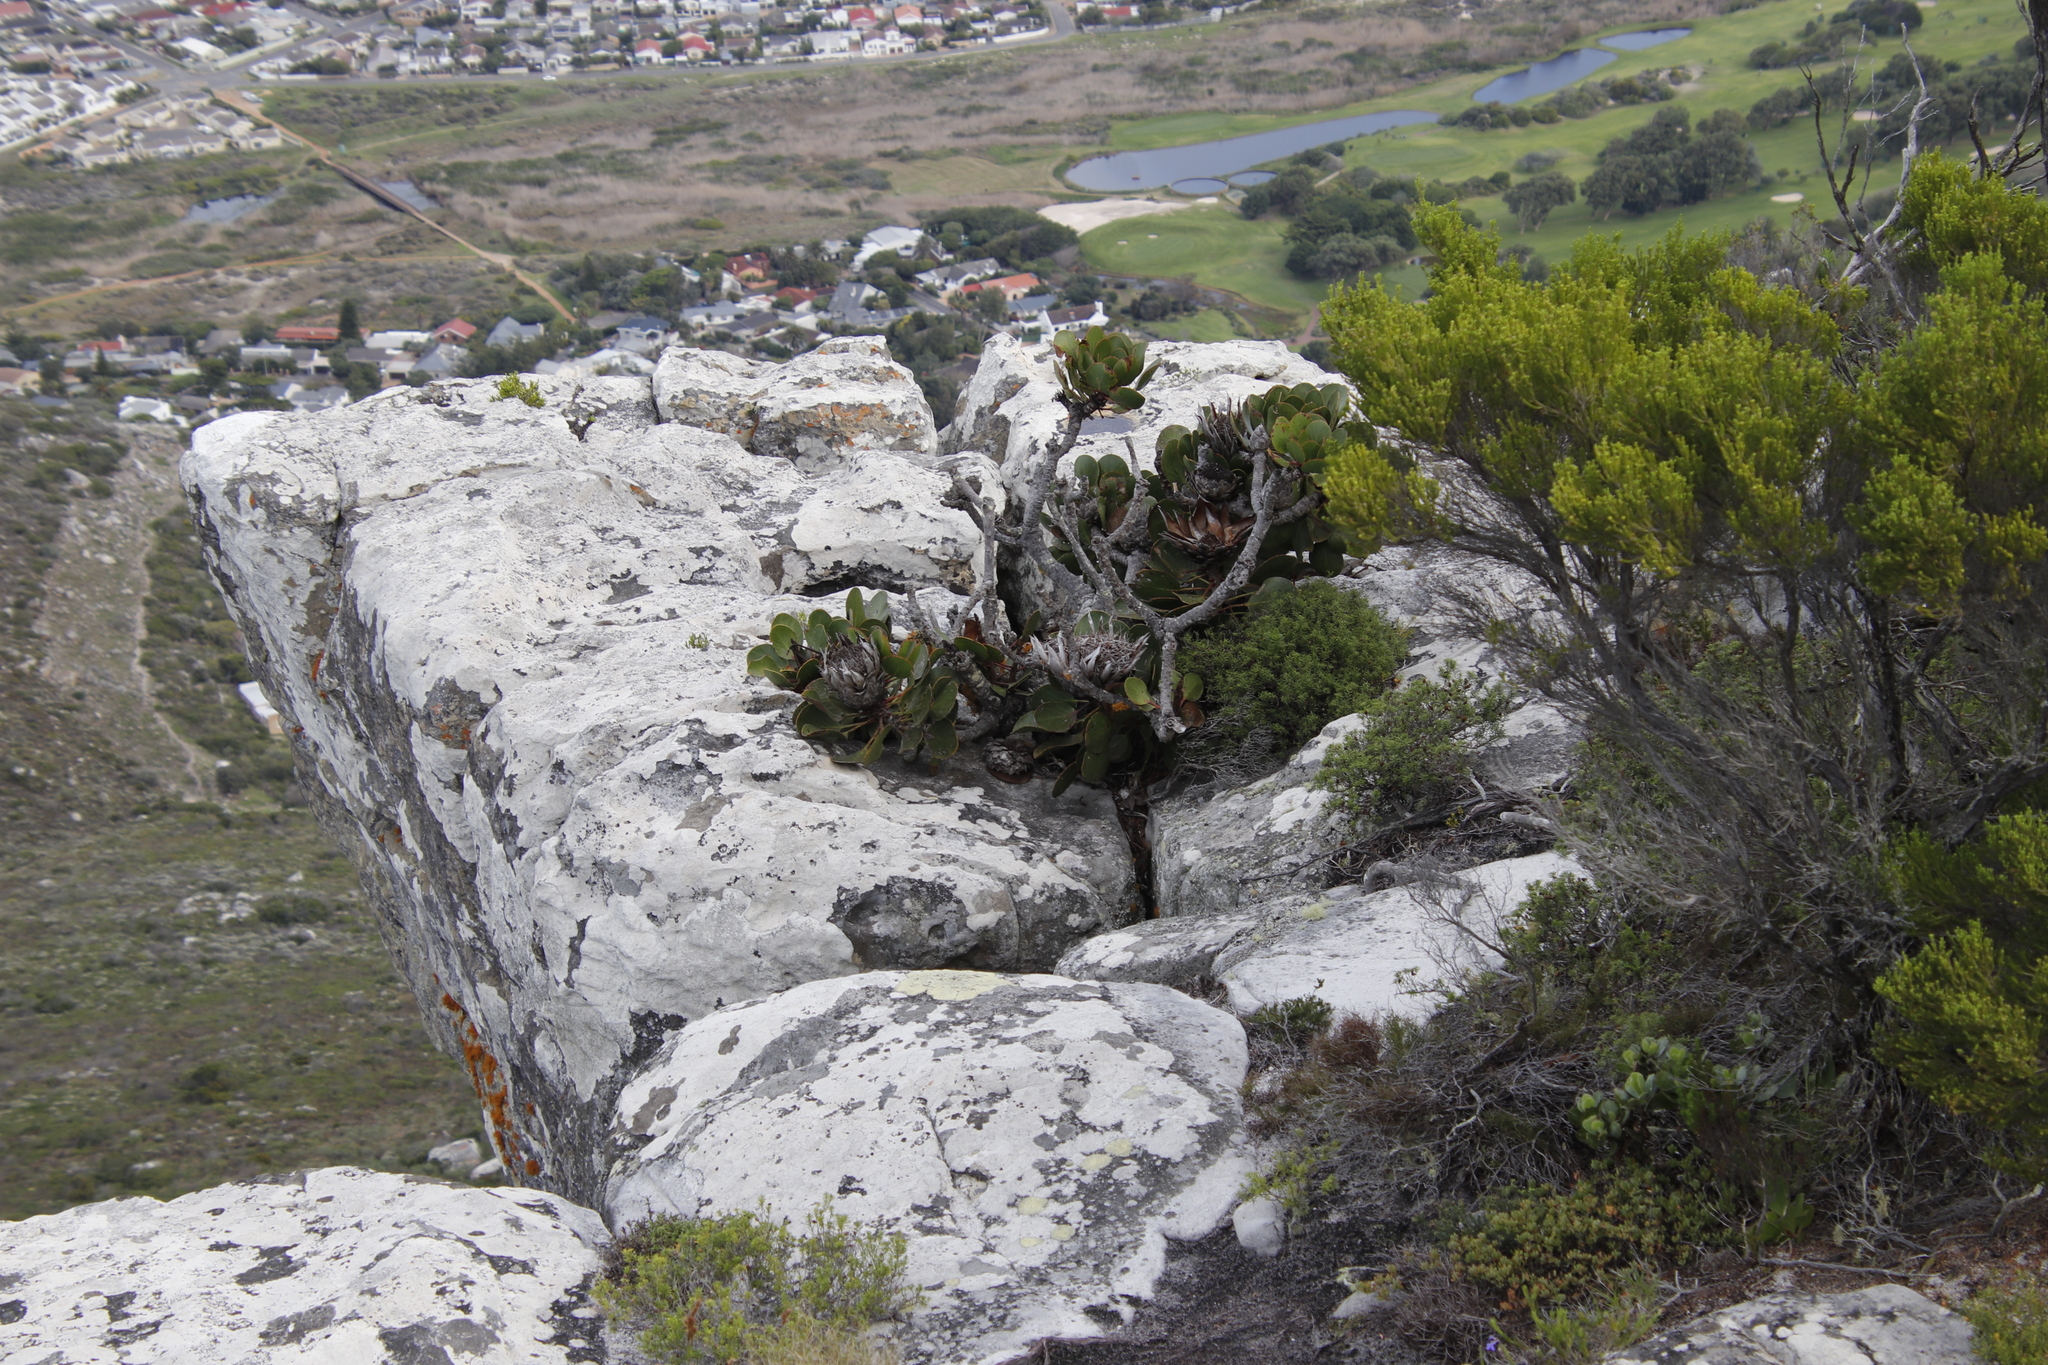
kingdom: Plantae
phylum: Tracheophyta
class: Magnoliopsida
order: Proteales
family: Proteaceae
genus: Protea
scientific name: Protea cynaroides
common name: King protea
